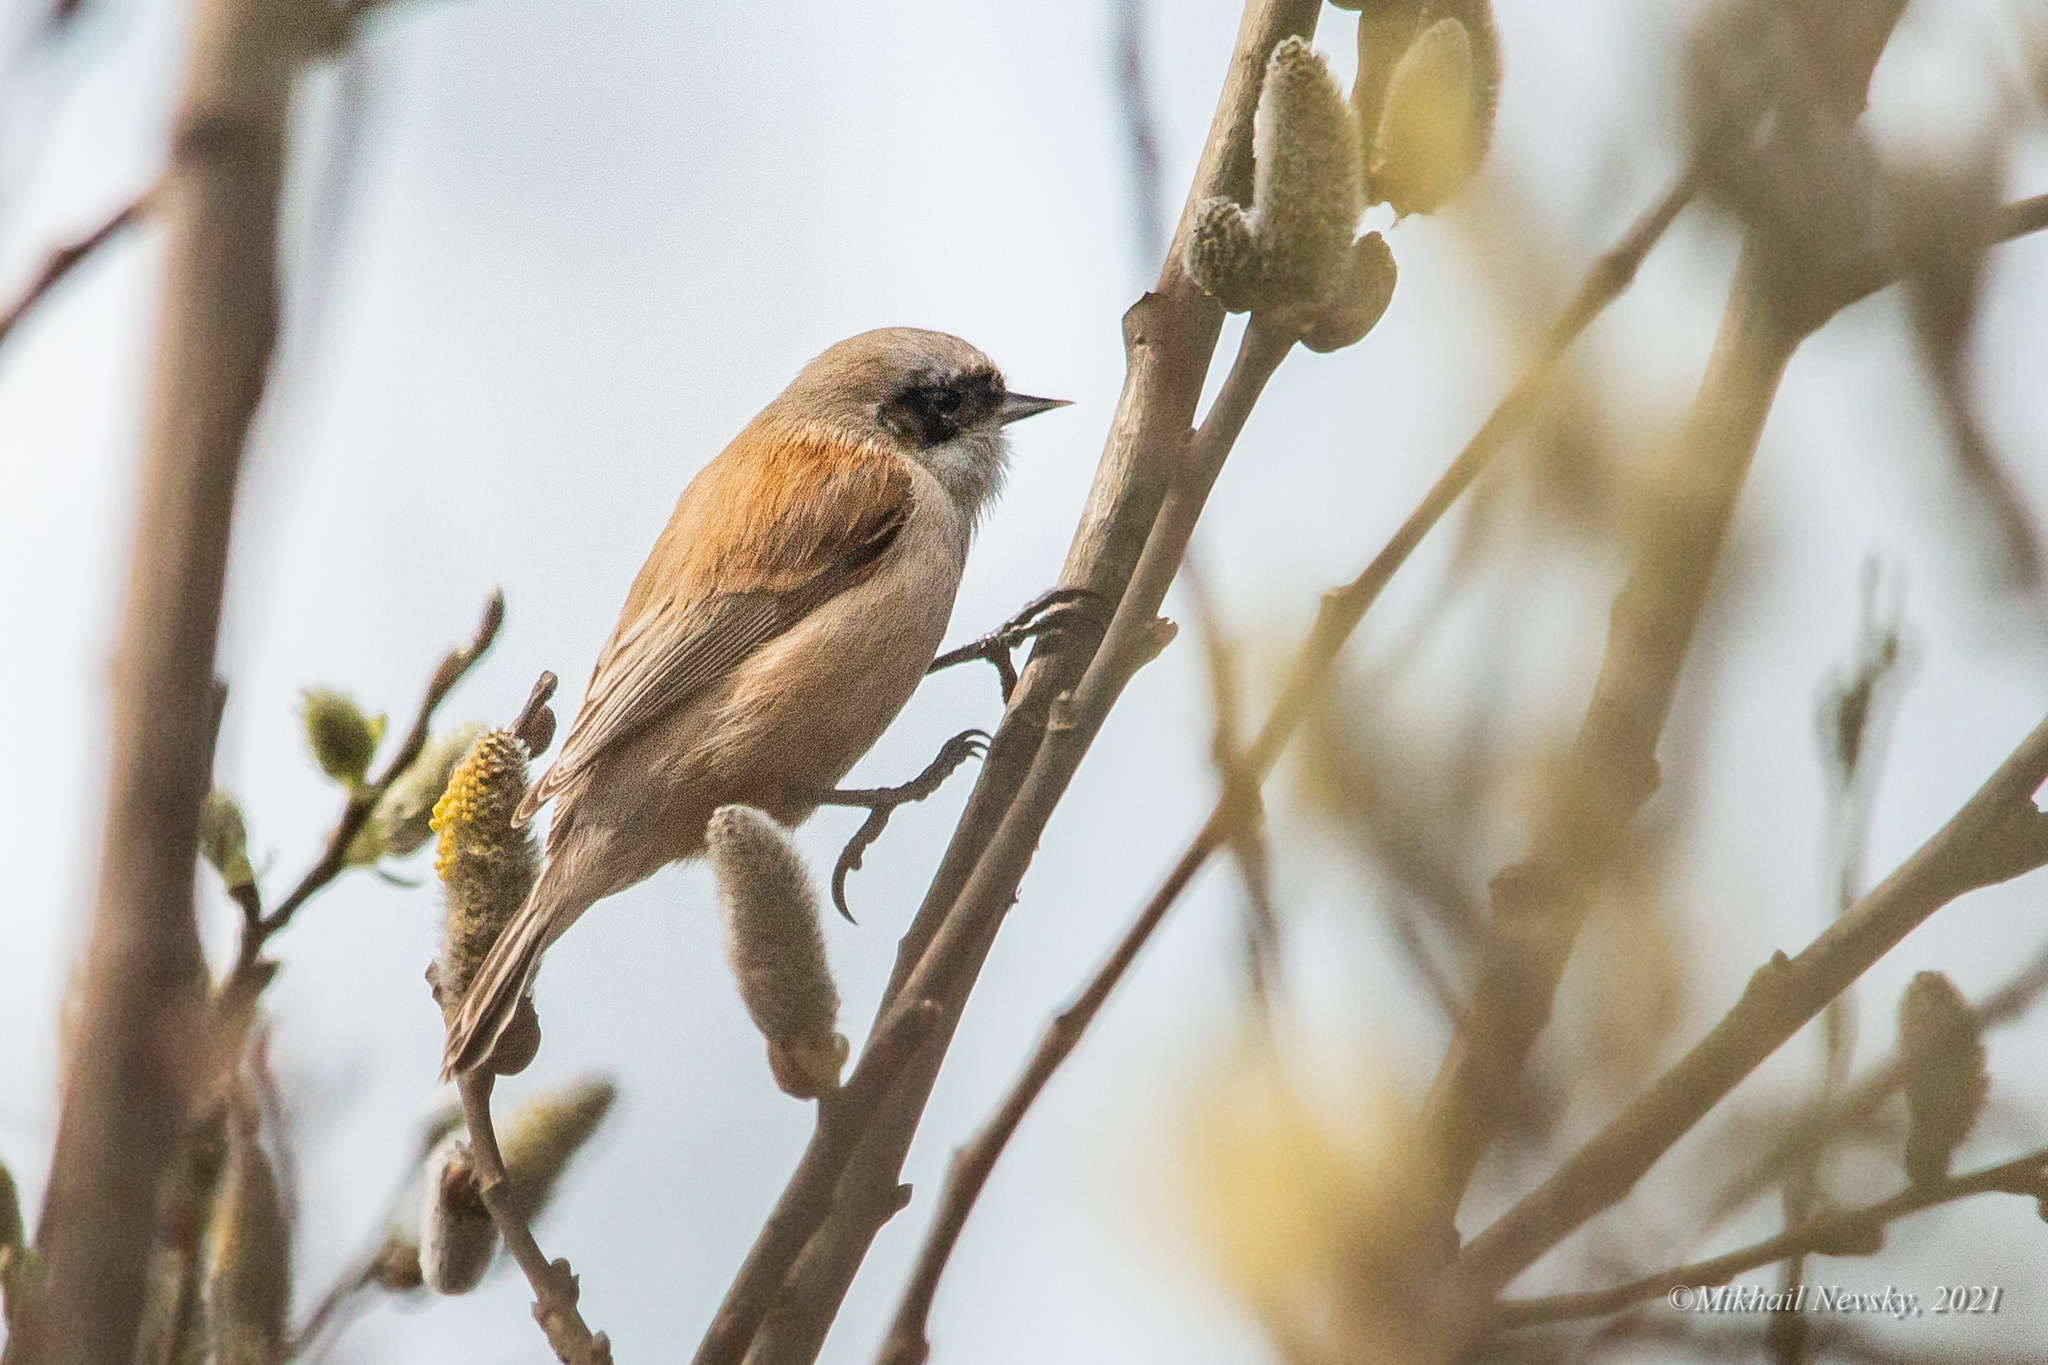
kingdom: Animalia
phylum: Chordata
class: Aves
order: Passeriformes
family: Remizidae
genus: Remiz
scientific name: Remiz pendulinus
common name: Eurasian penduline tit
